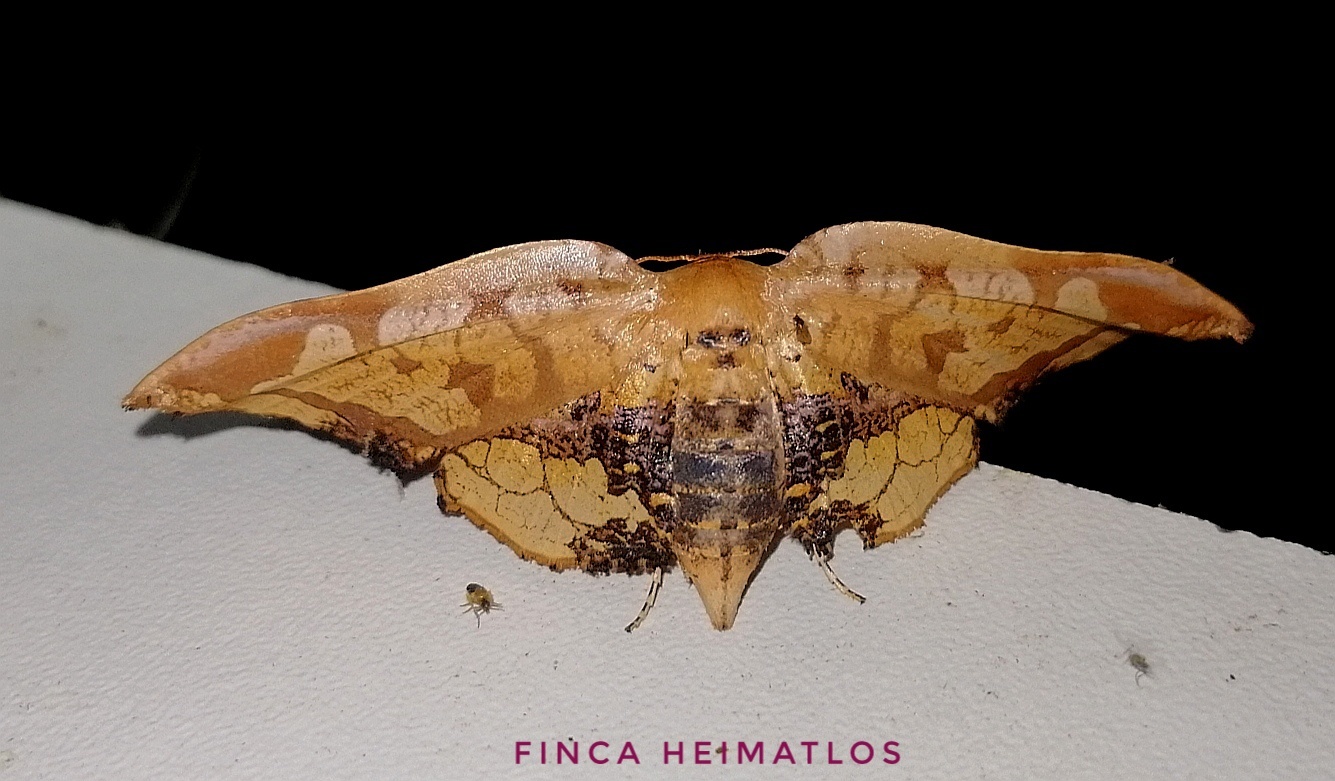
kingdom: Animalia
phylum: Arthropoda
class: Insecta
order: Lepidoptera
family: Thyrididae
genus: Draconia
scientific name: Draconia stenoptila
